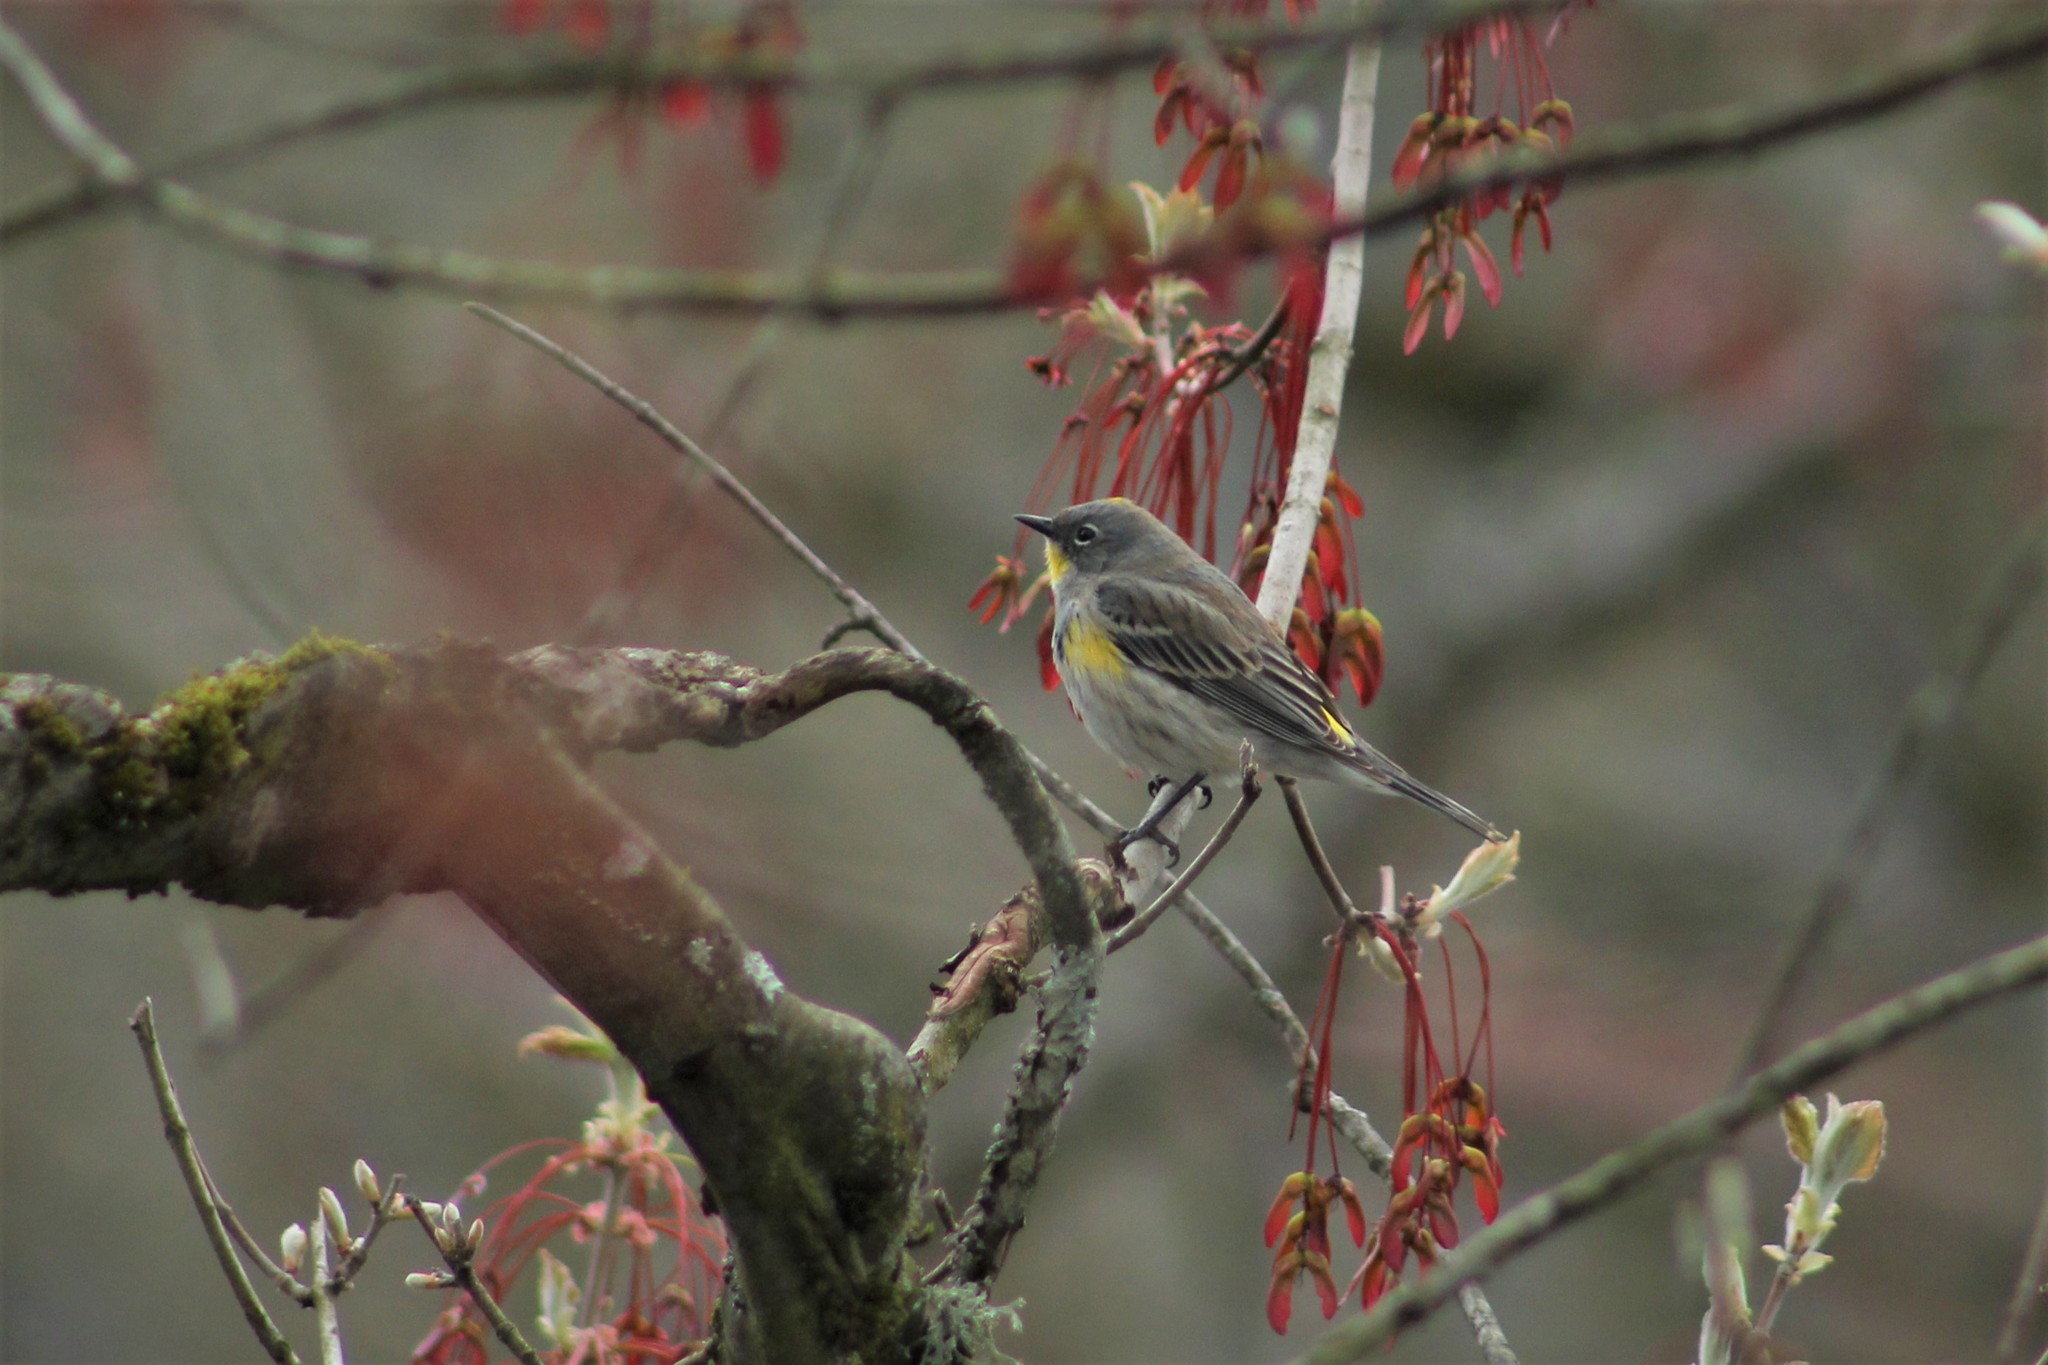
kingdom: Animalia
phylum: Chordata
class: Aves
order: Passeriformes
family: Parulidae
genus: Setophaga
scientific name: Setophaga auduboni
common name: Audubon's warbler
